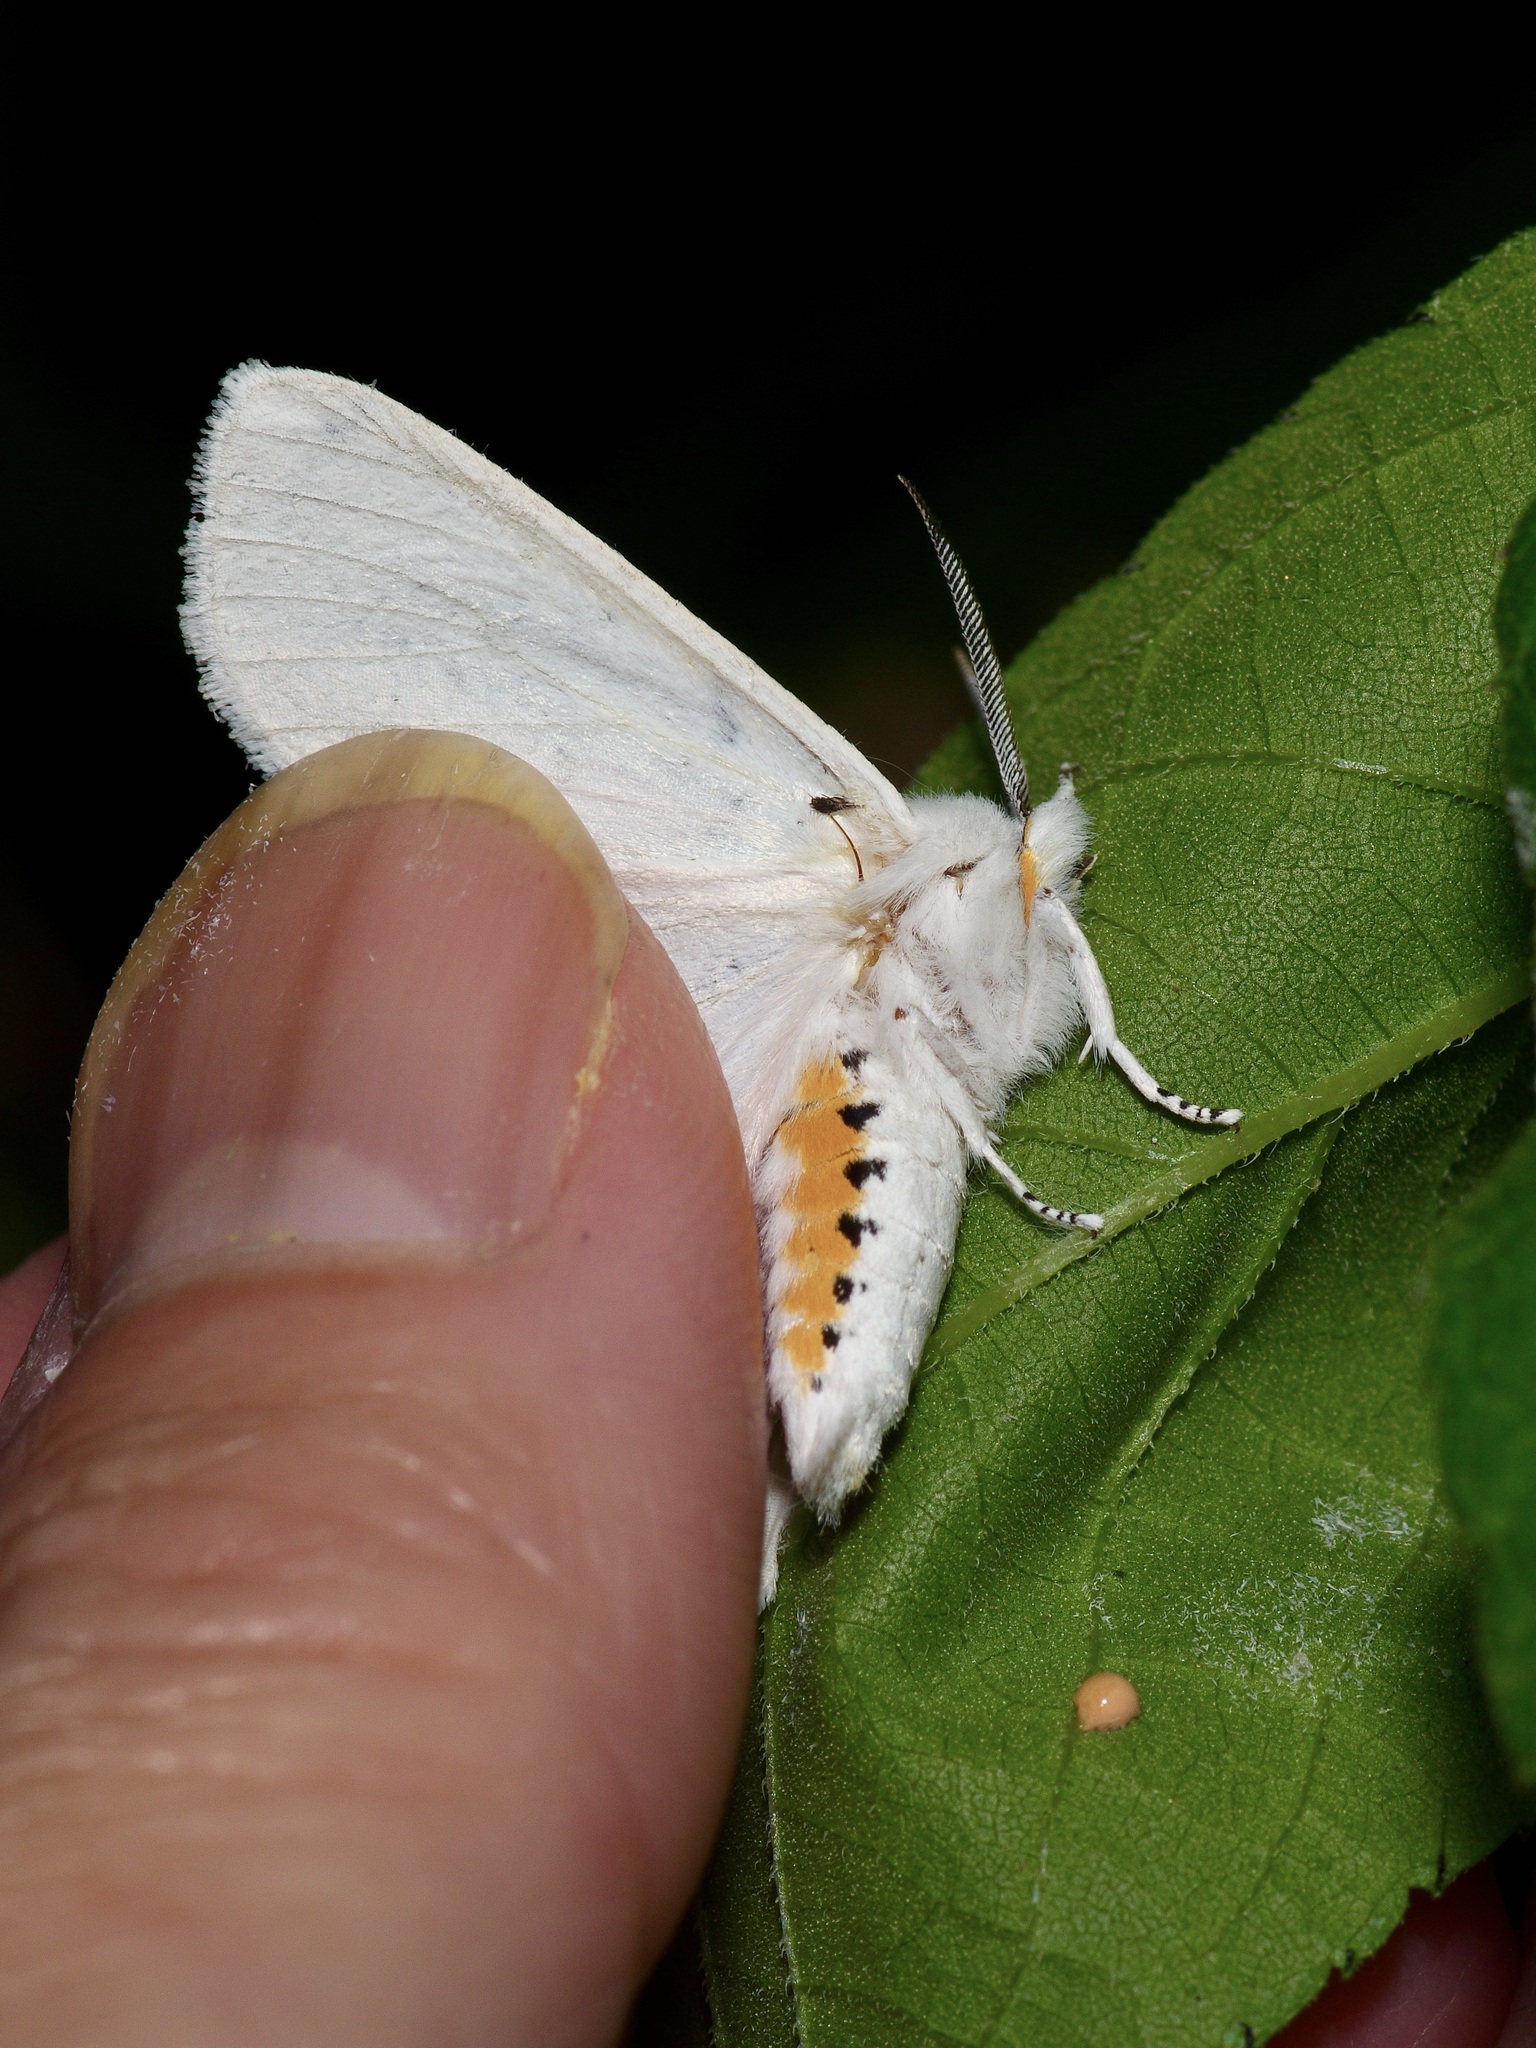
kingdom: Animalia
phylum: Arthropoda
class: Insecta
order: Lepidoptera
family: Erebidae
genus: Spilosoma
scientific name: Spilosoma virginica
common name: Virginia tiger moth
